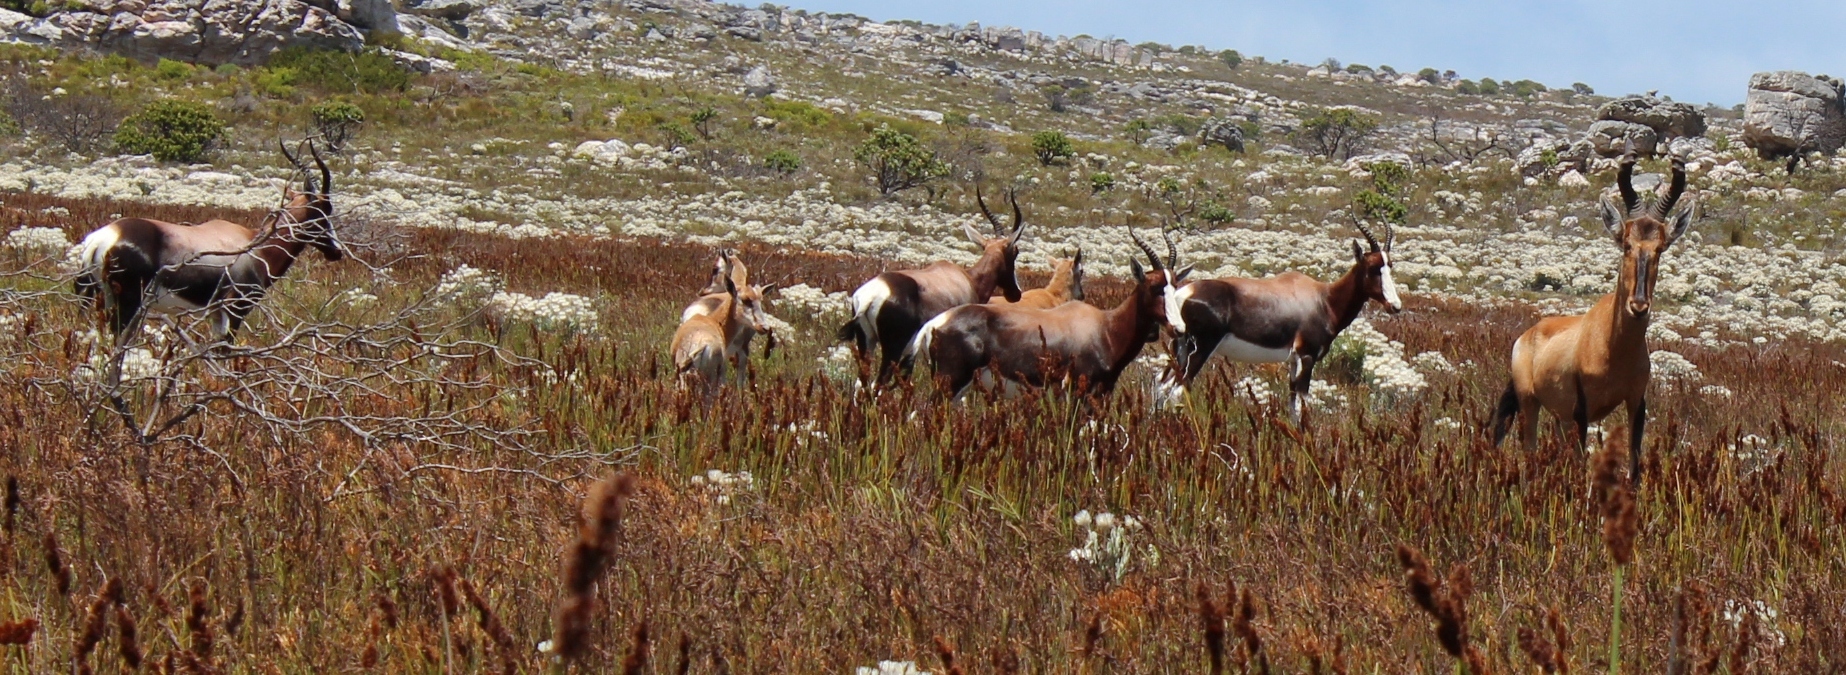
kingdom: Animalia
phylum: Chordata
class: Mammalia
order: Artiodactyla
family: Bovidae
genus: Alcelaphus
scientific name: Alcelaphus caama
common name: Red hartebeest
